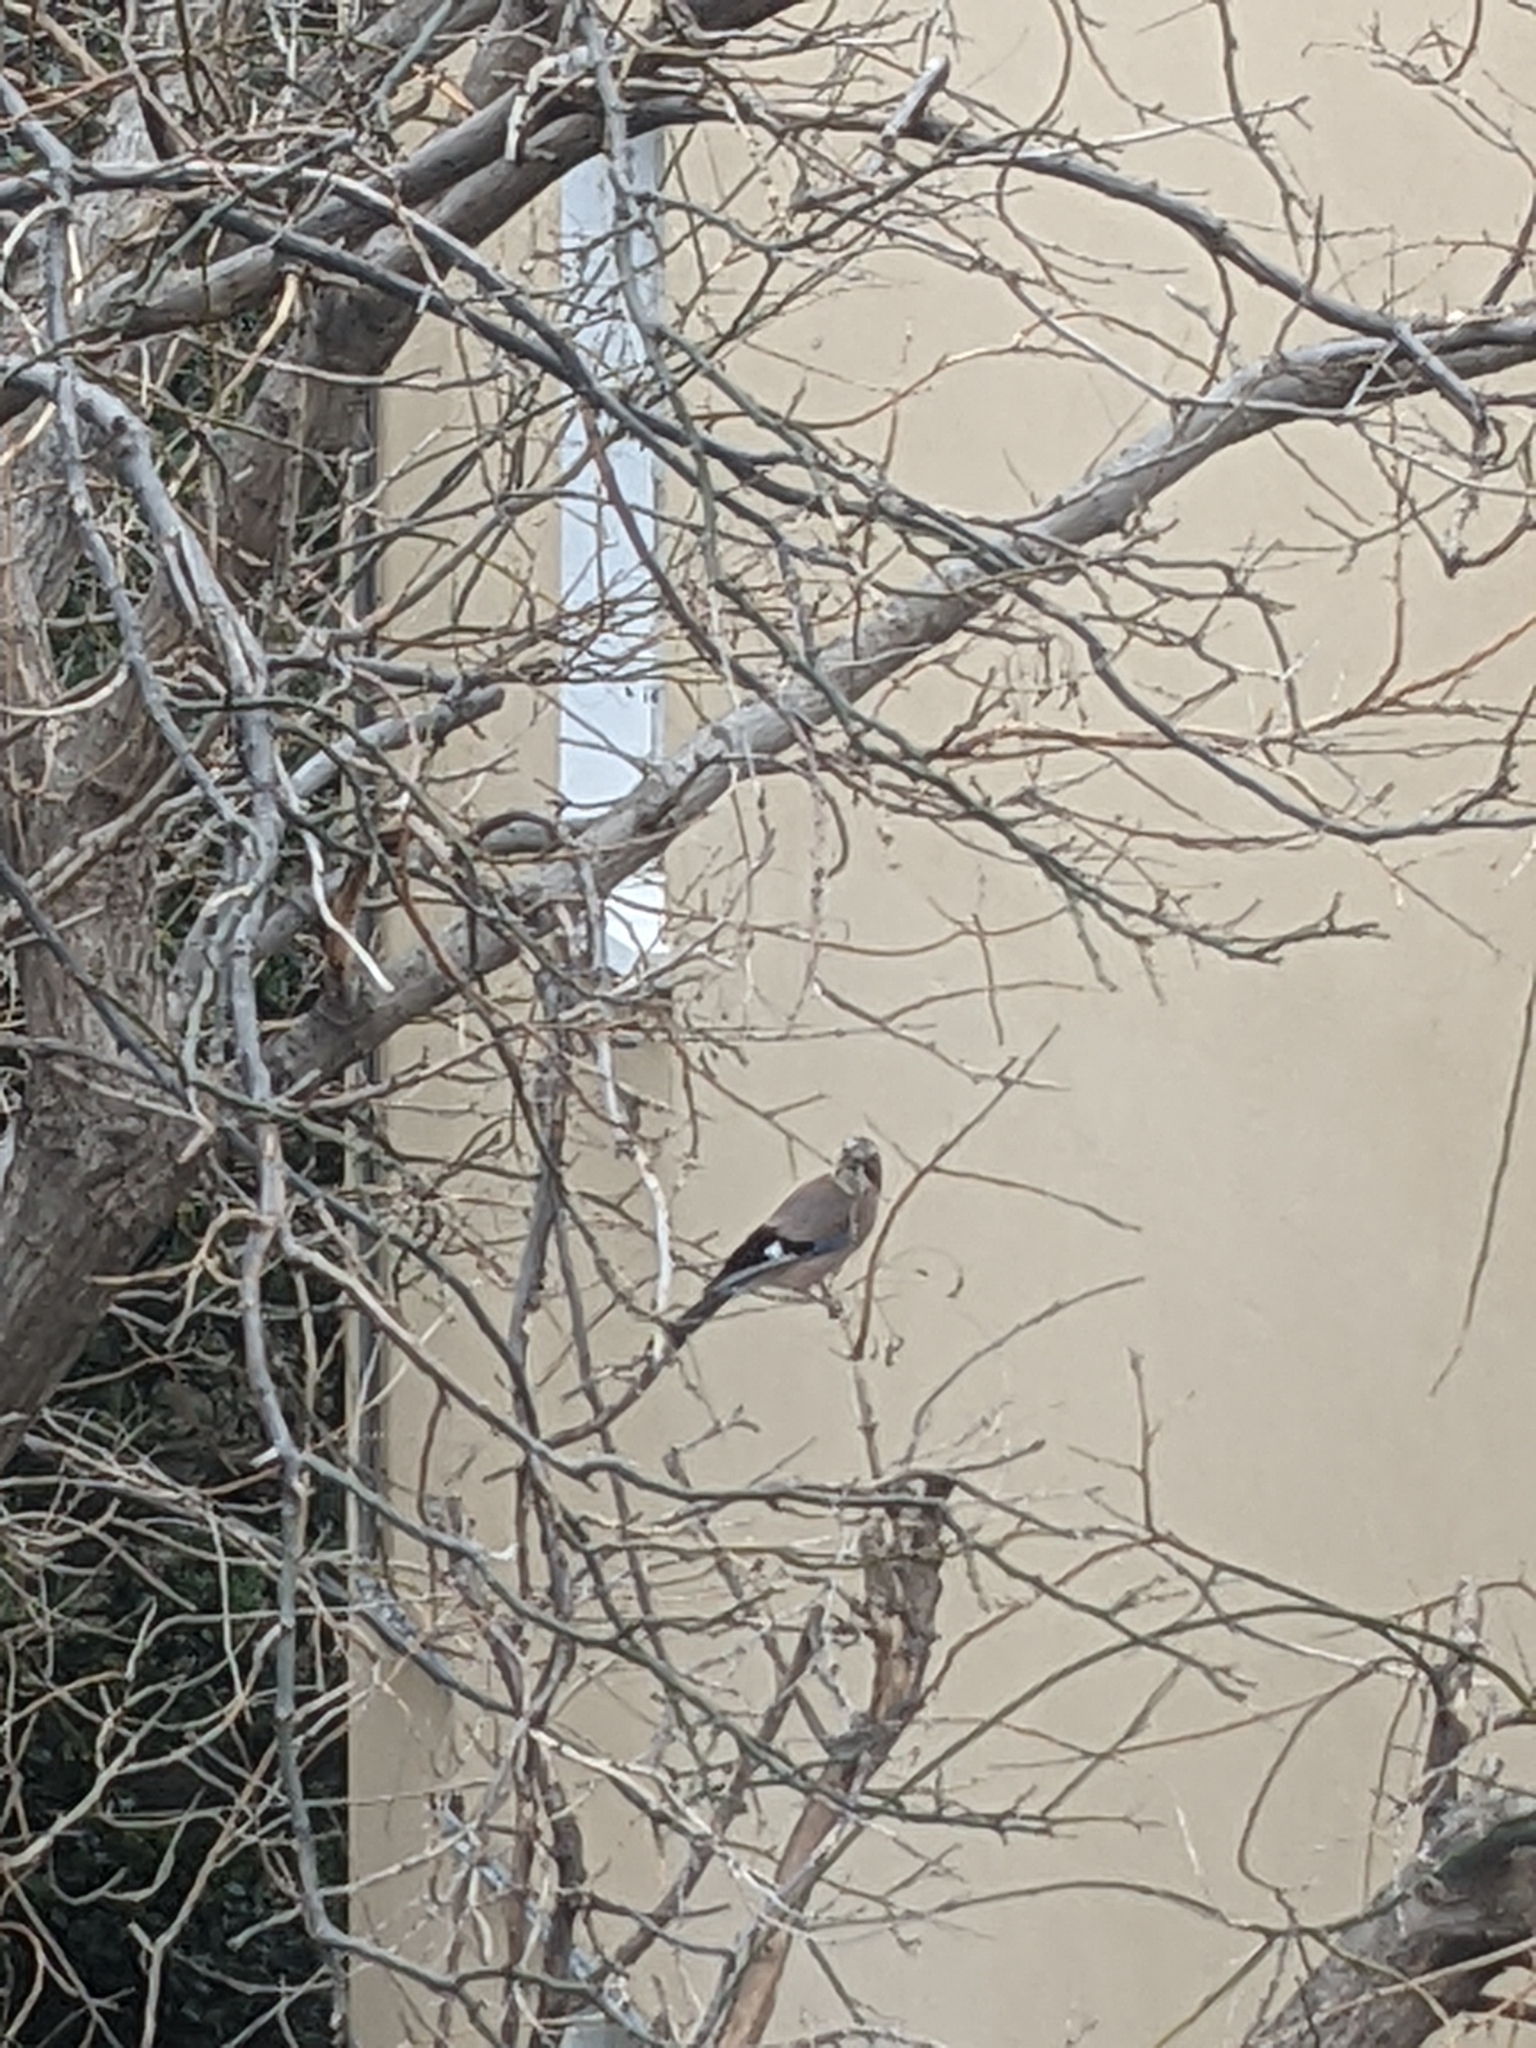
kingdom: Animalia
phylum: Chordata
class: Aves
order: Passeriformes
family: Corvidae
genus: Garrulus
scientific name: Garrulus glandarius
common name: Eurasian jay
